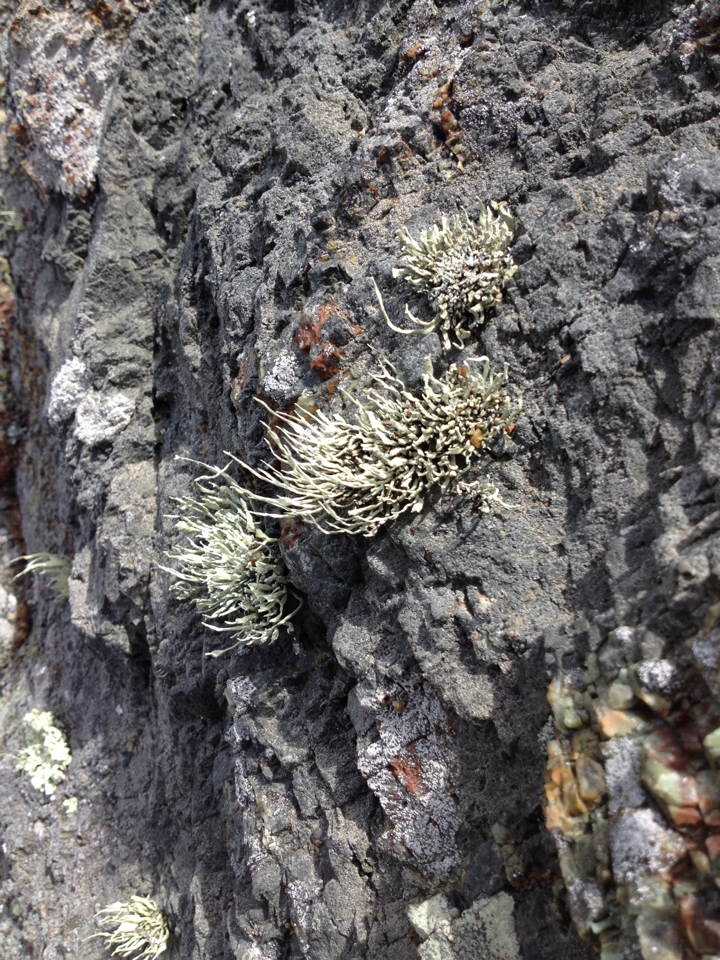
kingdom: Fungi
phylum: Ascomycota
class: Lecanoromycetes
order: Lecanorales
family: Ramalinaceae
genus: Niebla
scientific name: Niebla homalea
